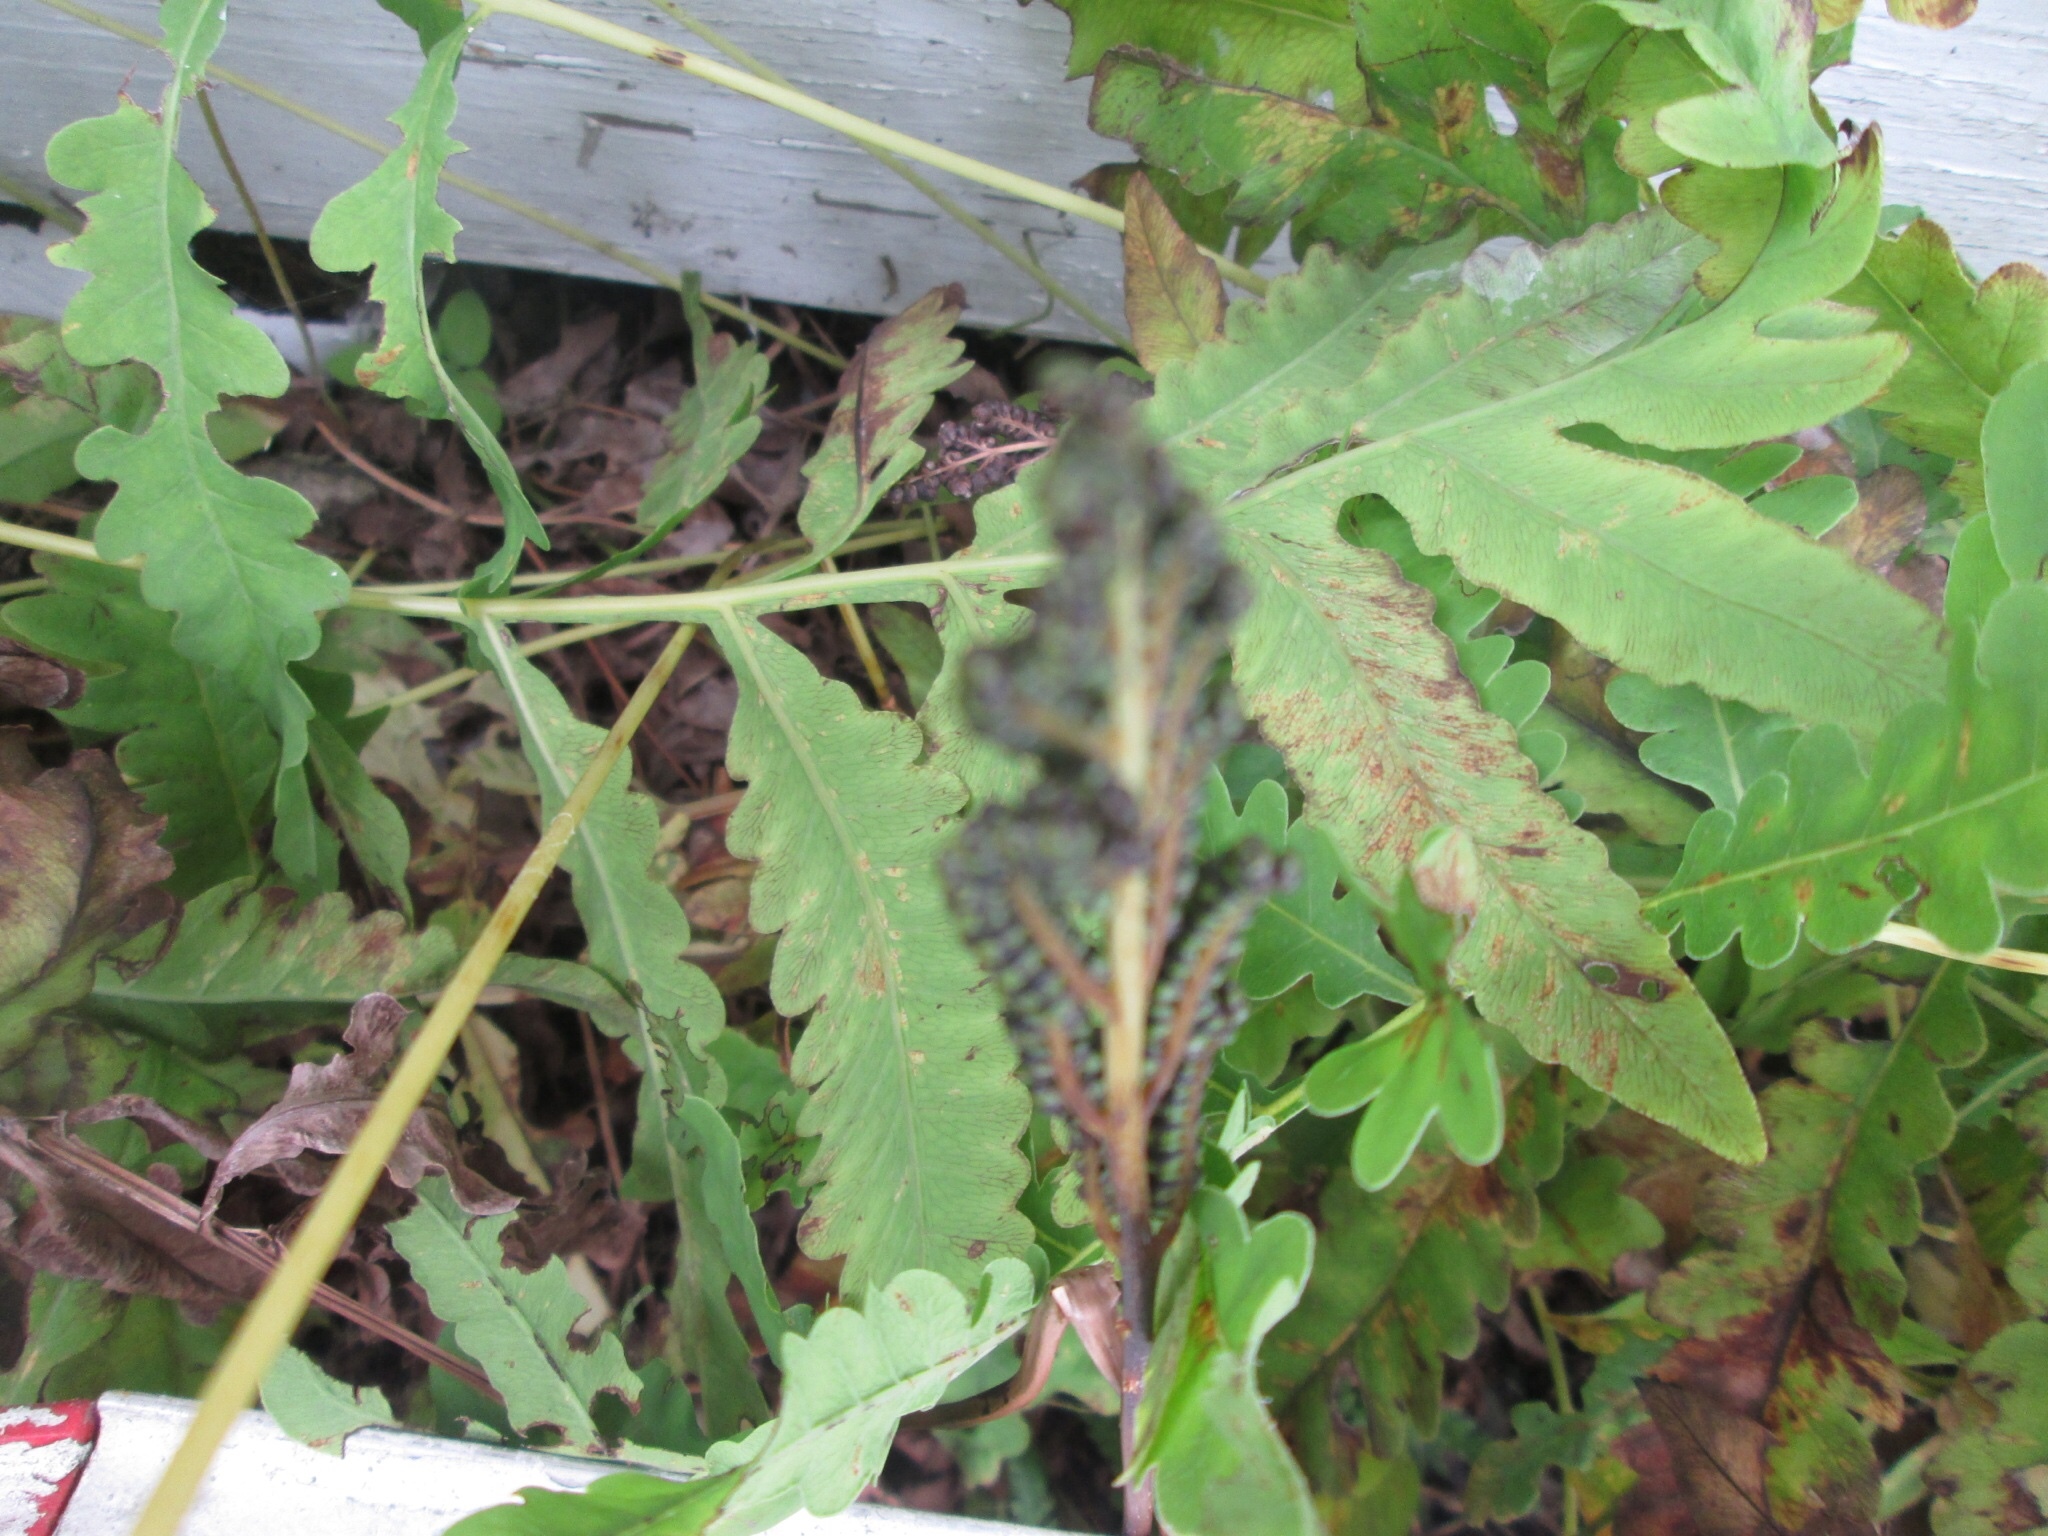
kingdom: Plantae
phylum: Tracheophyta
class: Polypodiopsida
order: Polypodiales
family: Onocleaceae
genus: Onoclea
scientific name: Onoclea sensibilis
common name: Sensitive fern
